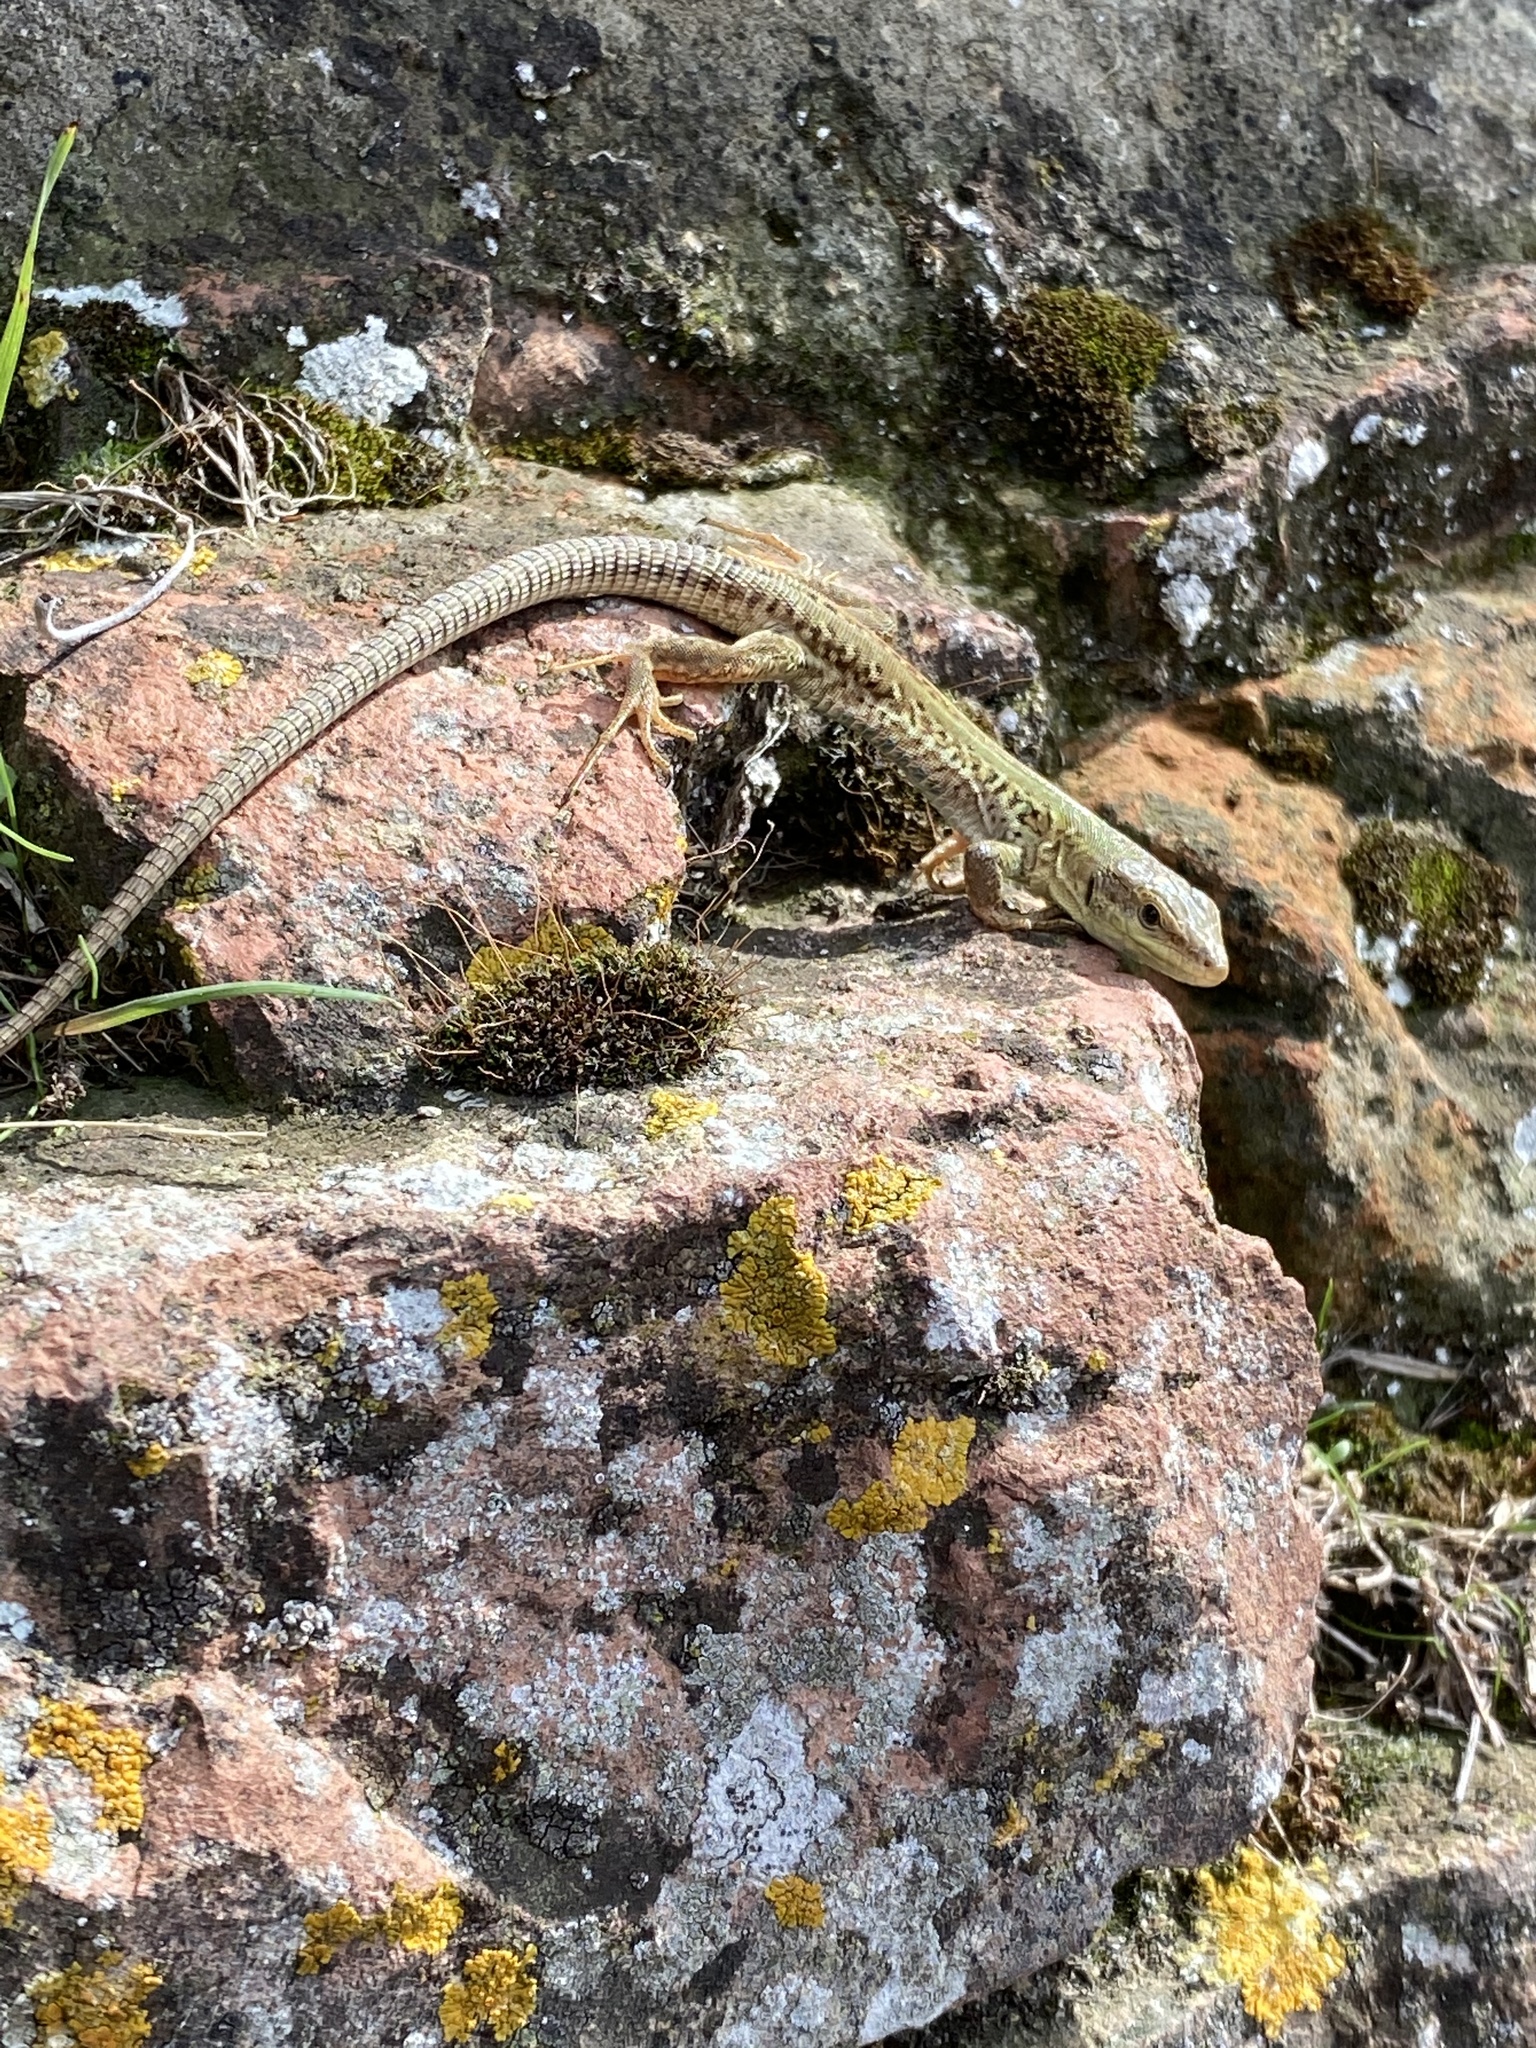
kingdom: Animalia
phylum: Chordata
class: Squamata
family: Lacertidae
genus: Podarcis
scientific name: Podarcis siculus
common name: Italian wall lizard
